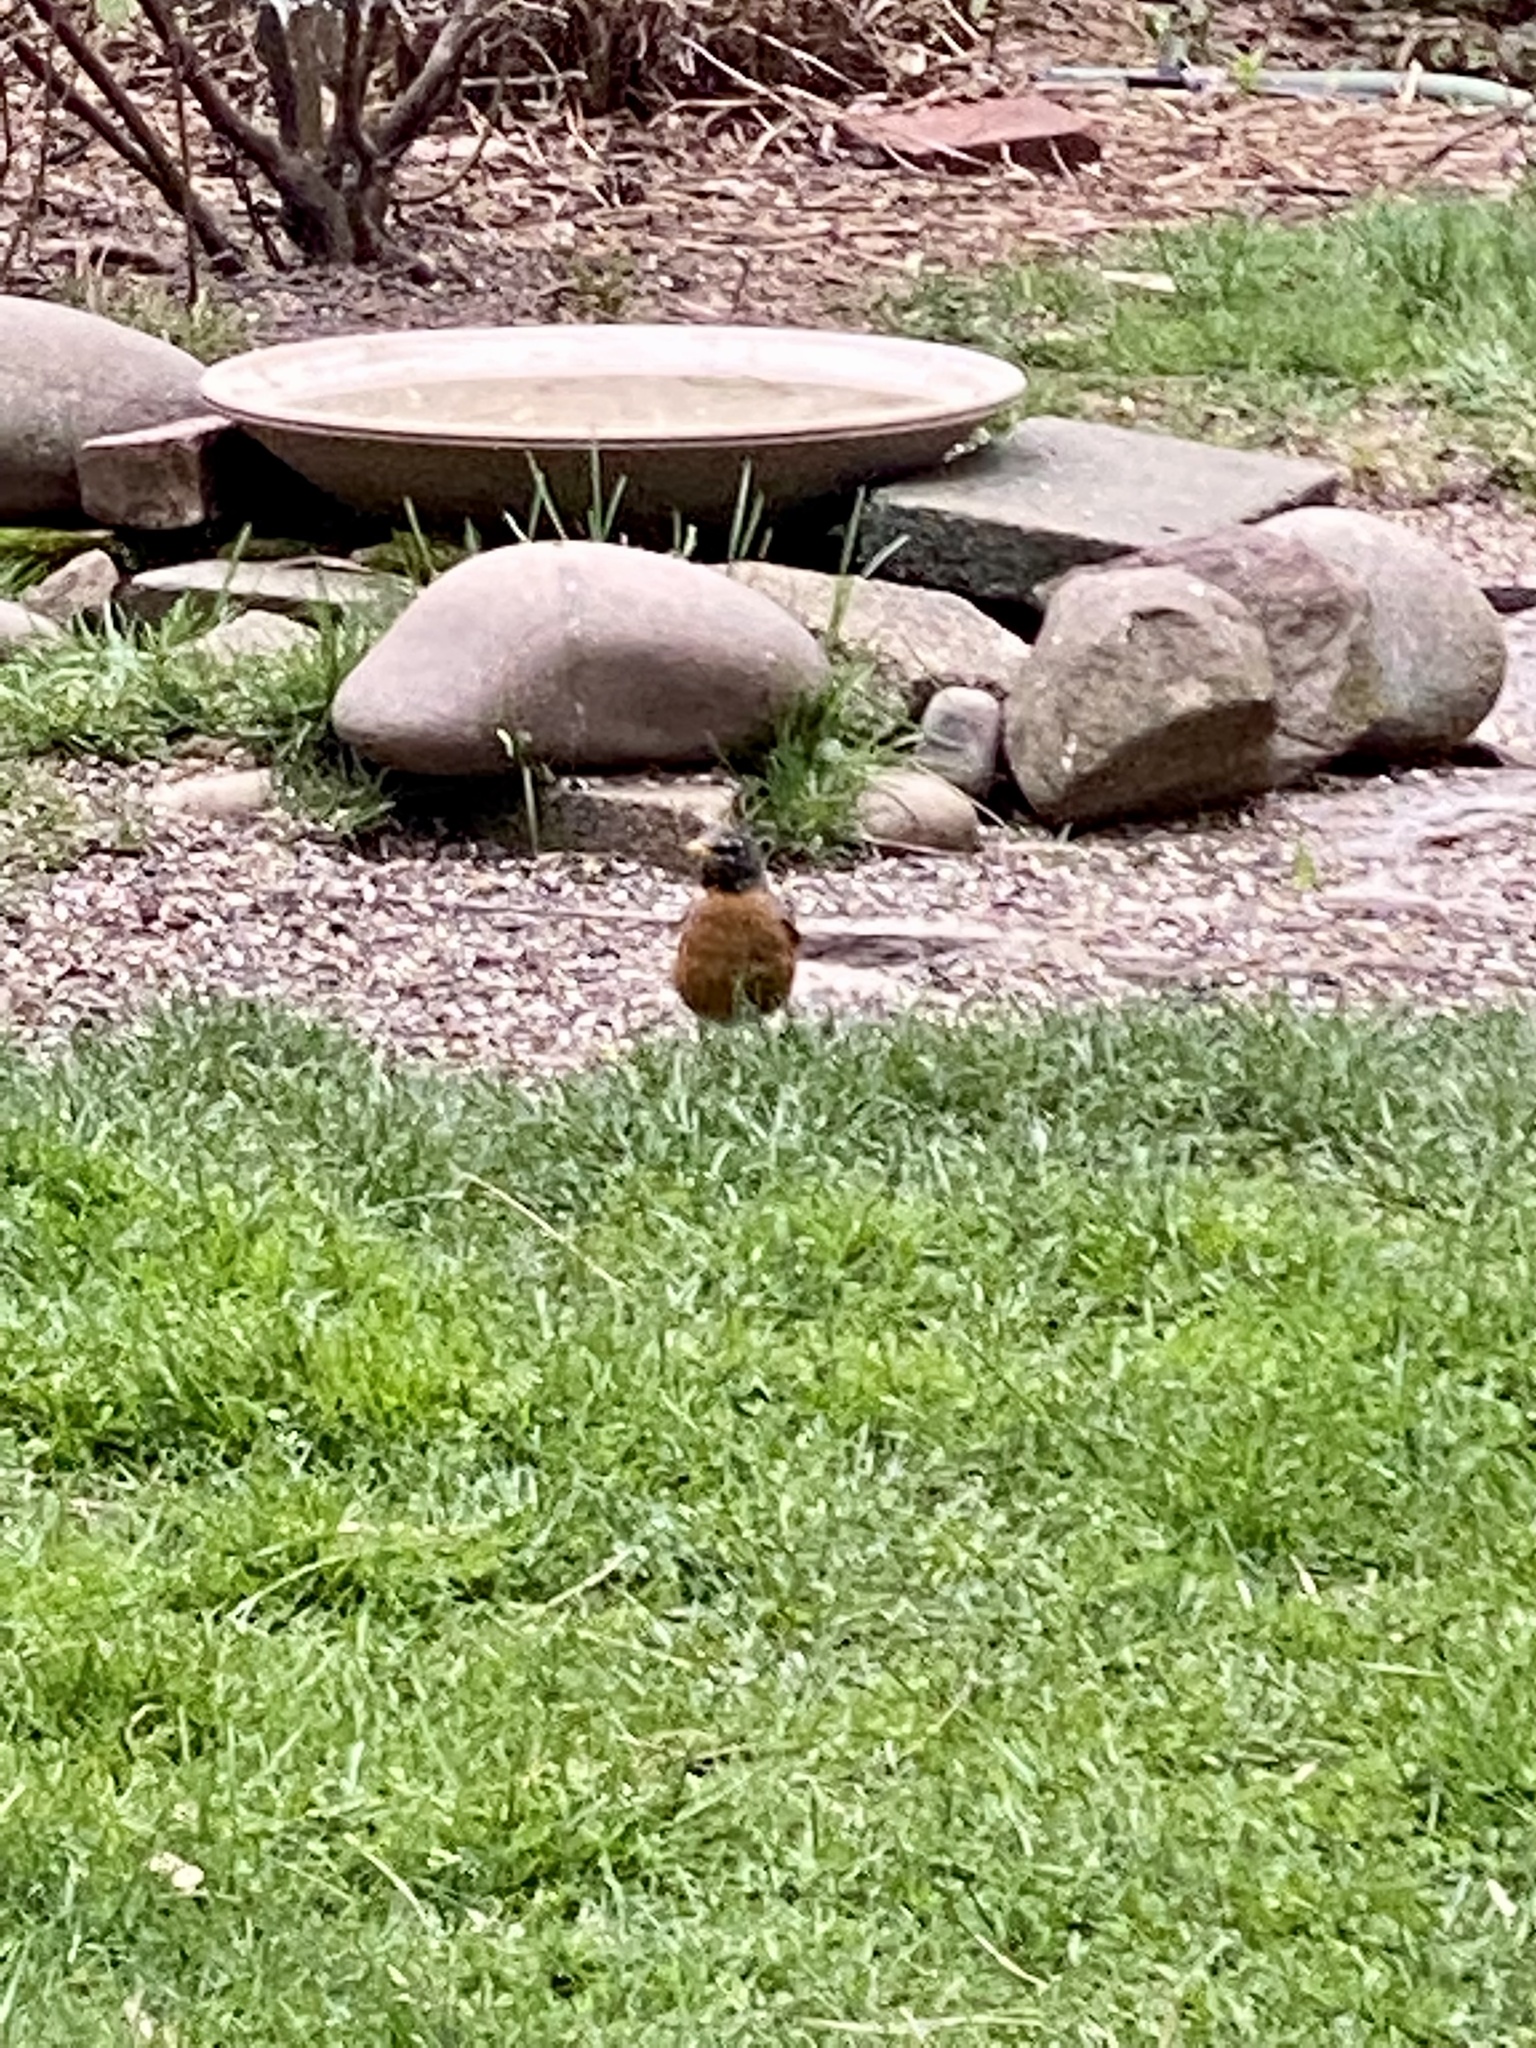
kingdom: Animalia
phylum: Chordata
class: Aves
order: Passeriformes
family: Turdidae
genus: Turdus
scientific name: Turdus migratorius
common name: American robin
